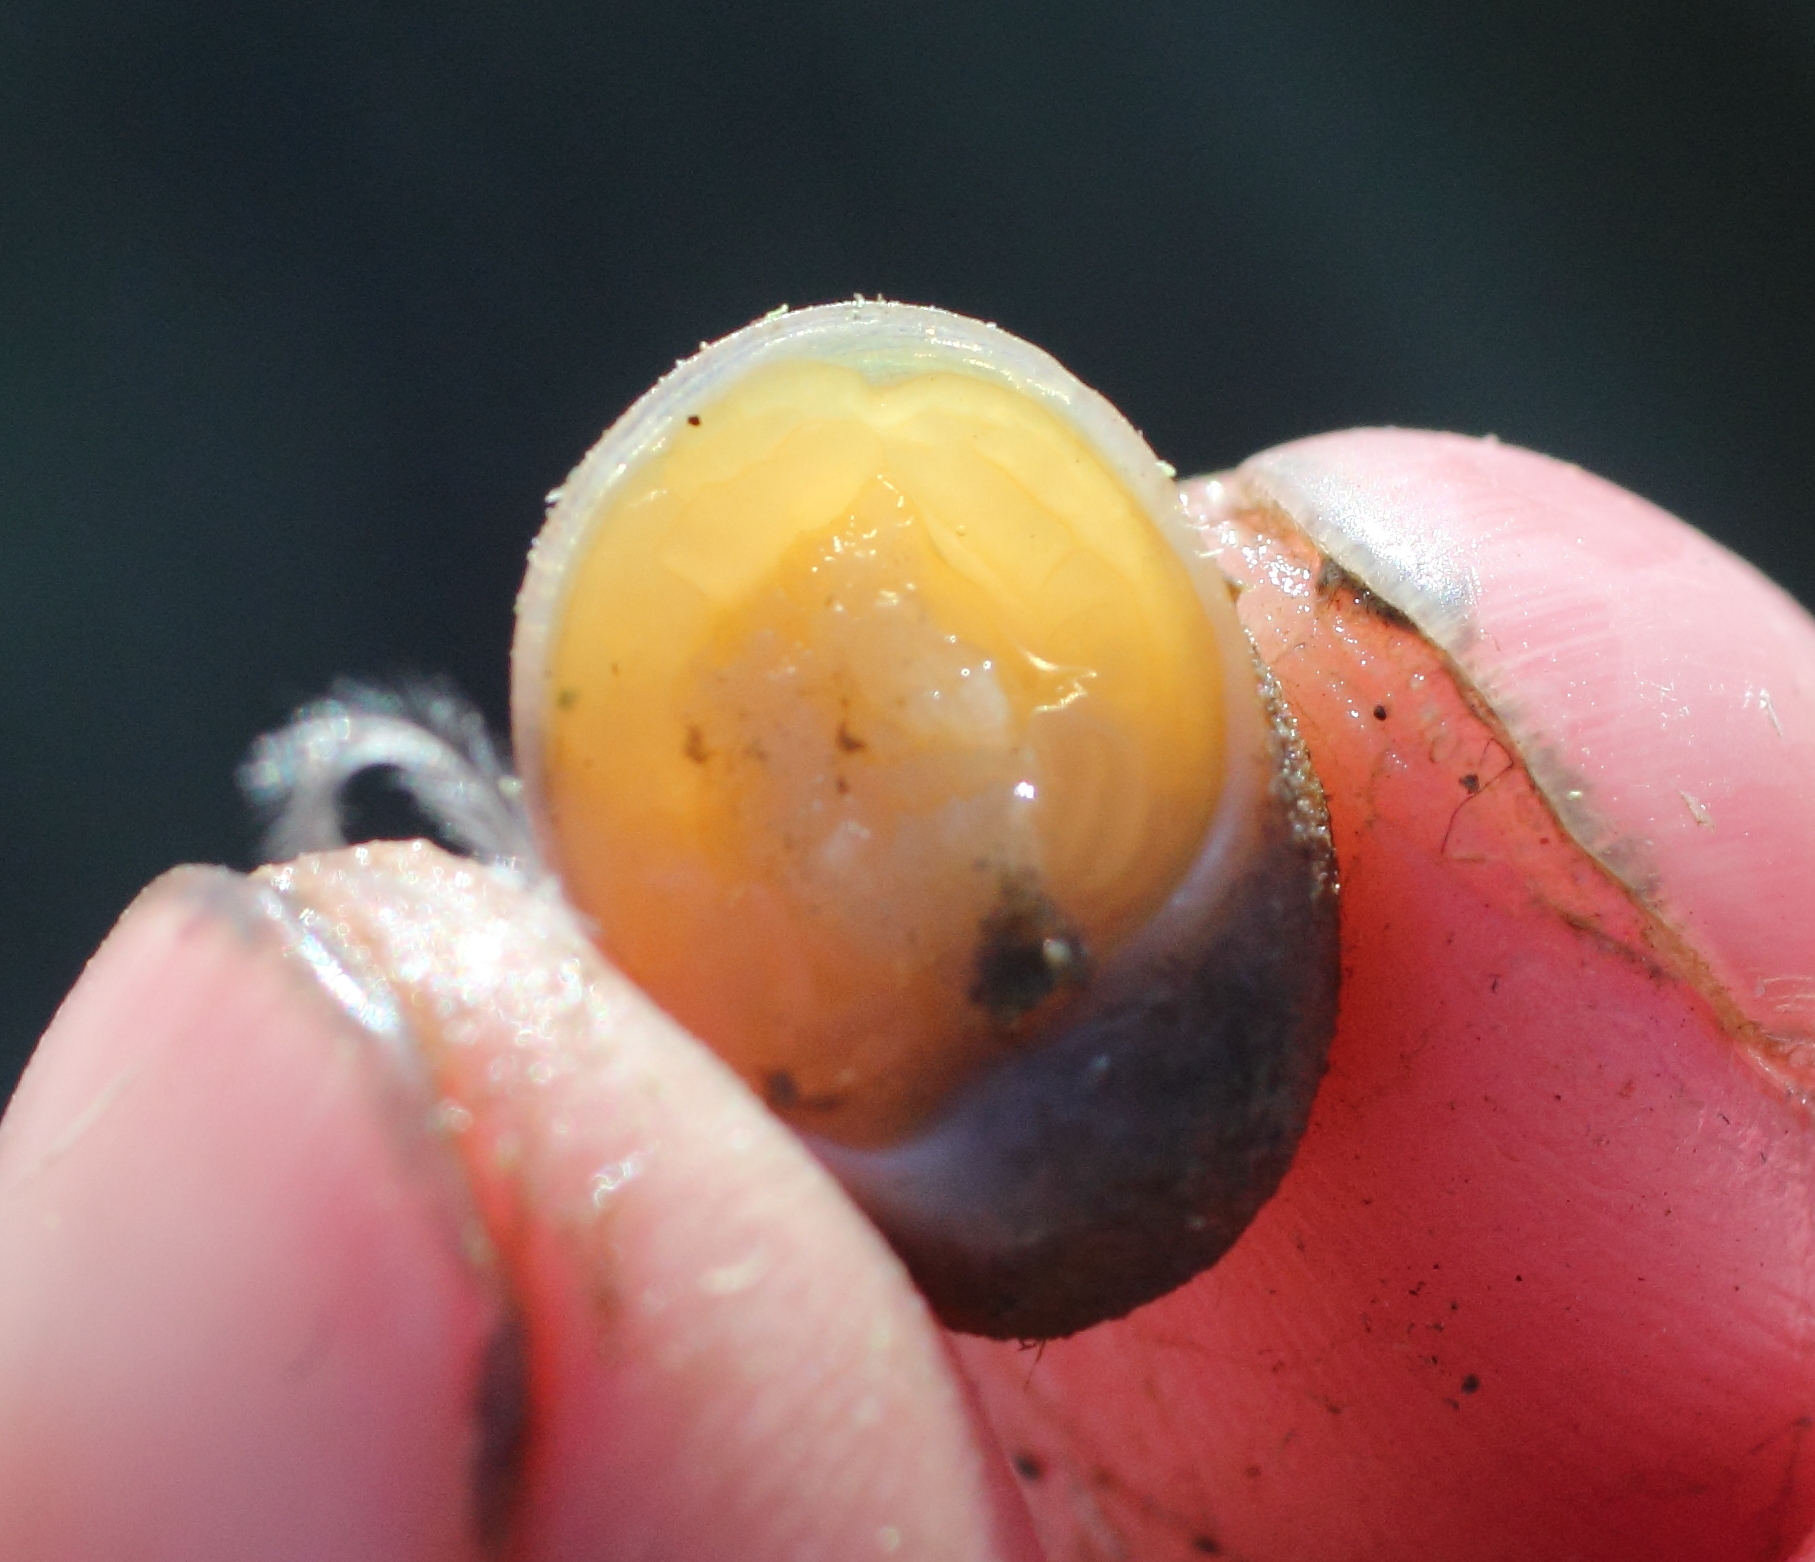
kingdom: Animalia
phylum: Mollusca
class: Gastropoda
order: Littorinimorpha
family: Velutinidae
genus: Velutina
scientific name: Velutina velutina
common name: Smooth lamellaria
